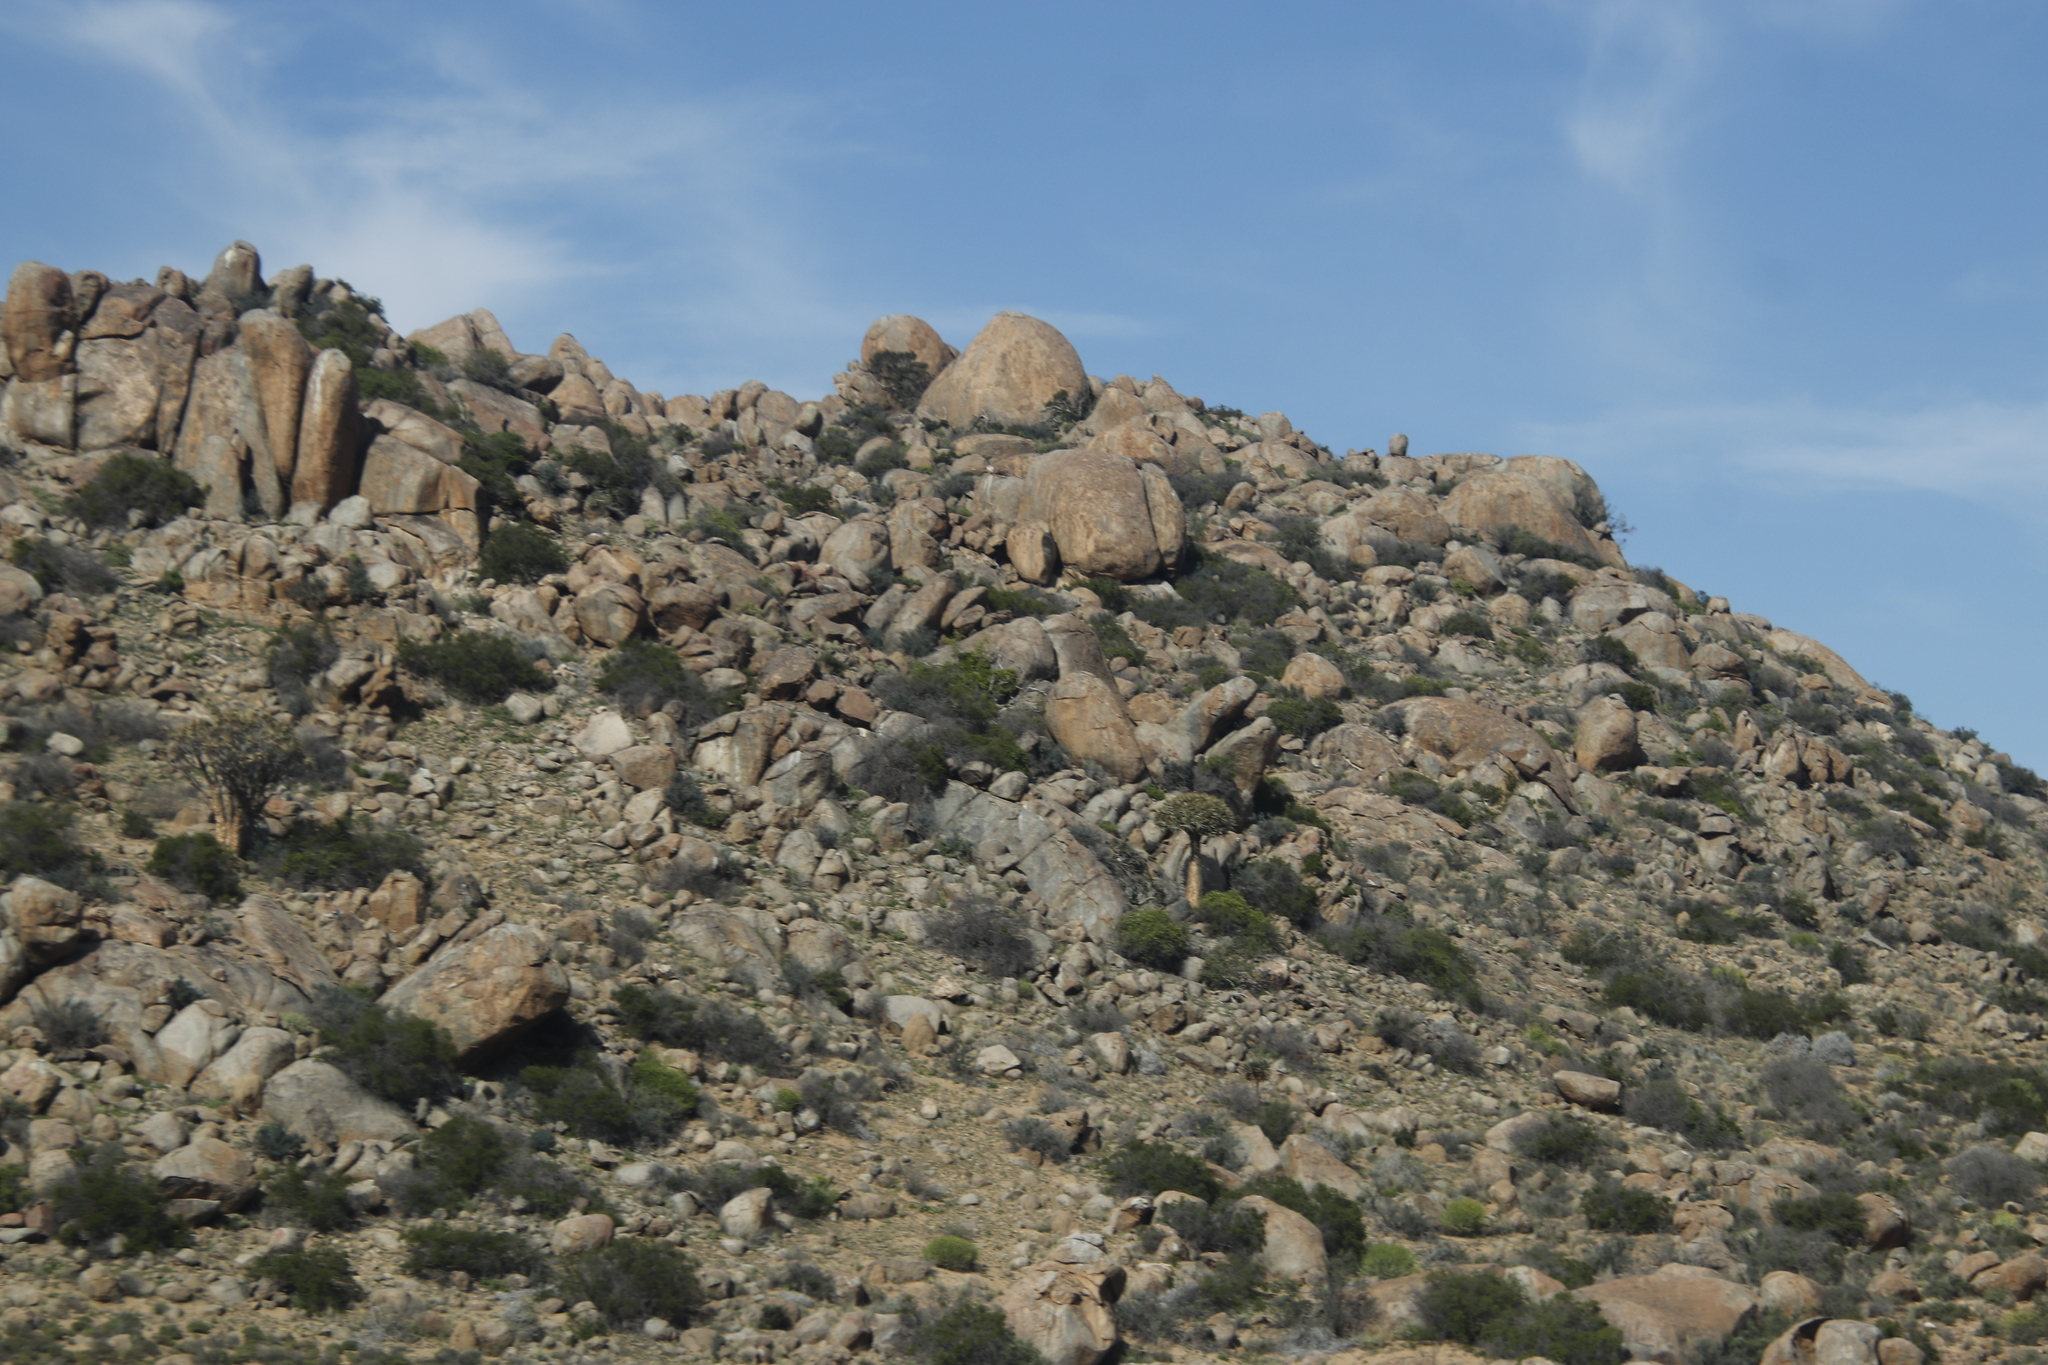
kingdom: Plantae
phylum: Tracheophyta
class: Liliopsida
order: Asparagales
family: Asphodelaceae
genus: Aloidendron
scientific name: Aloidendron dichotomum
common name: Quiver tree
